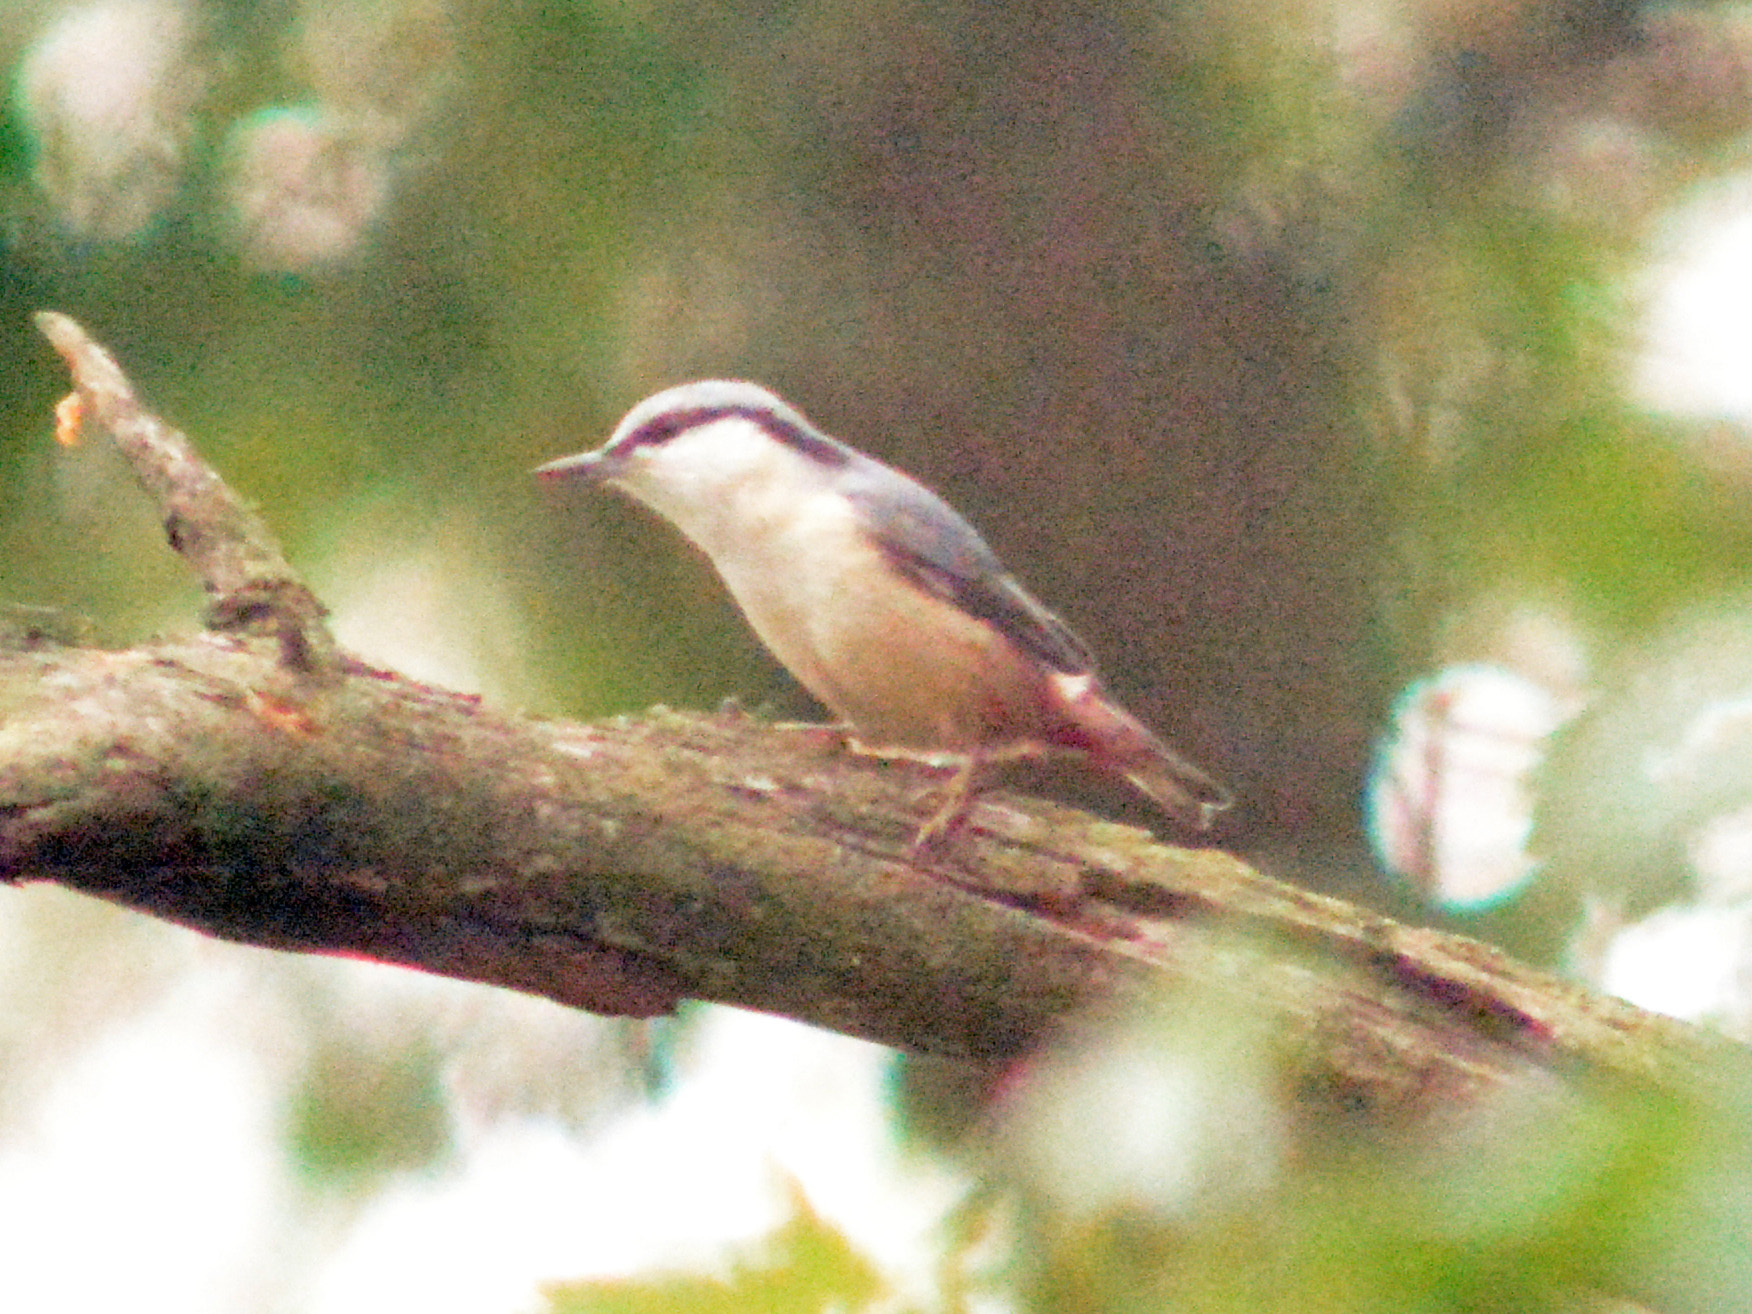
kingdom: Animalia
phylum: Chordata
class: Aves
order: Passeriformes
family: Sittidae
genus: Sitta
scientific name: Sitta europaea
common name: Eurasian nuthatch
